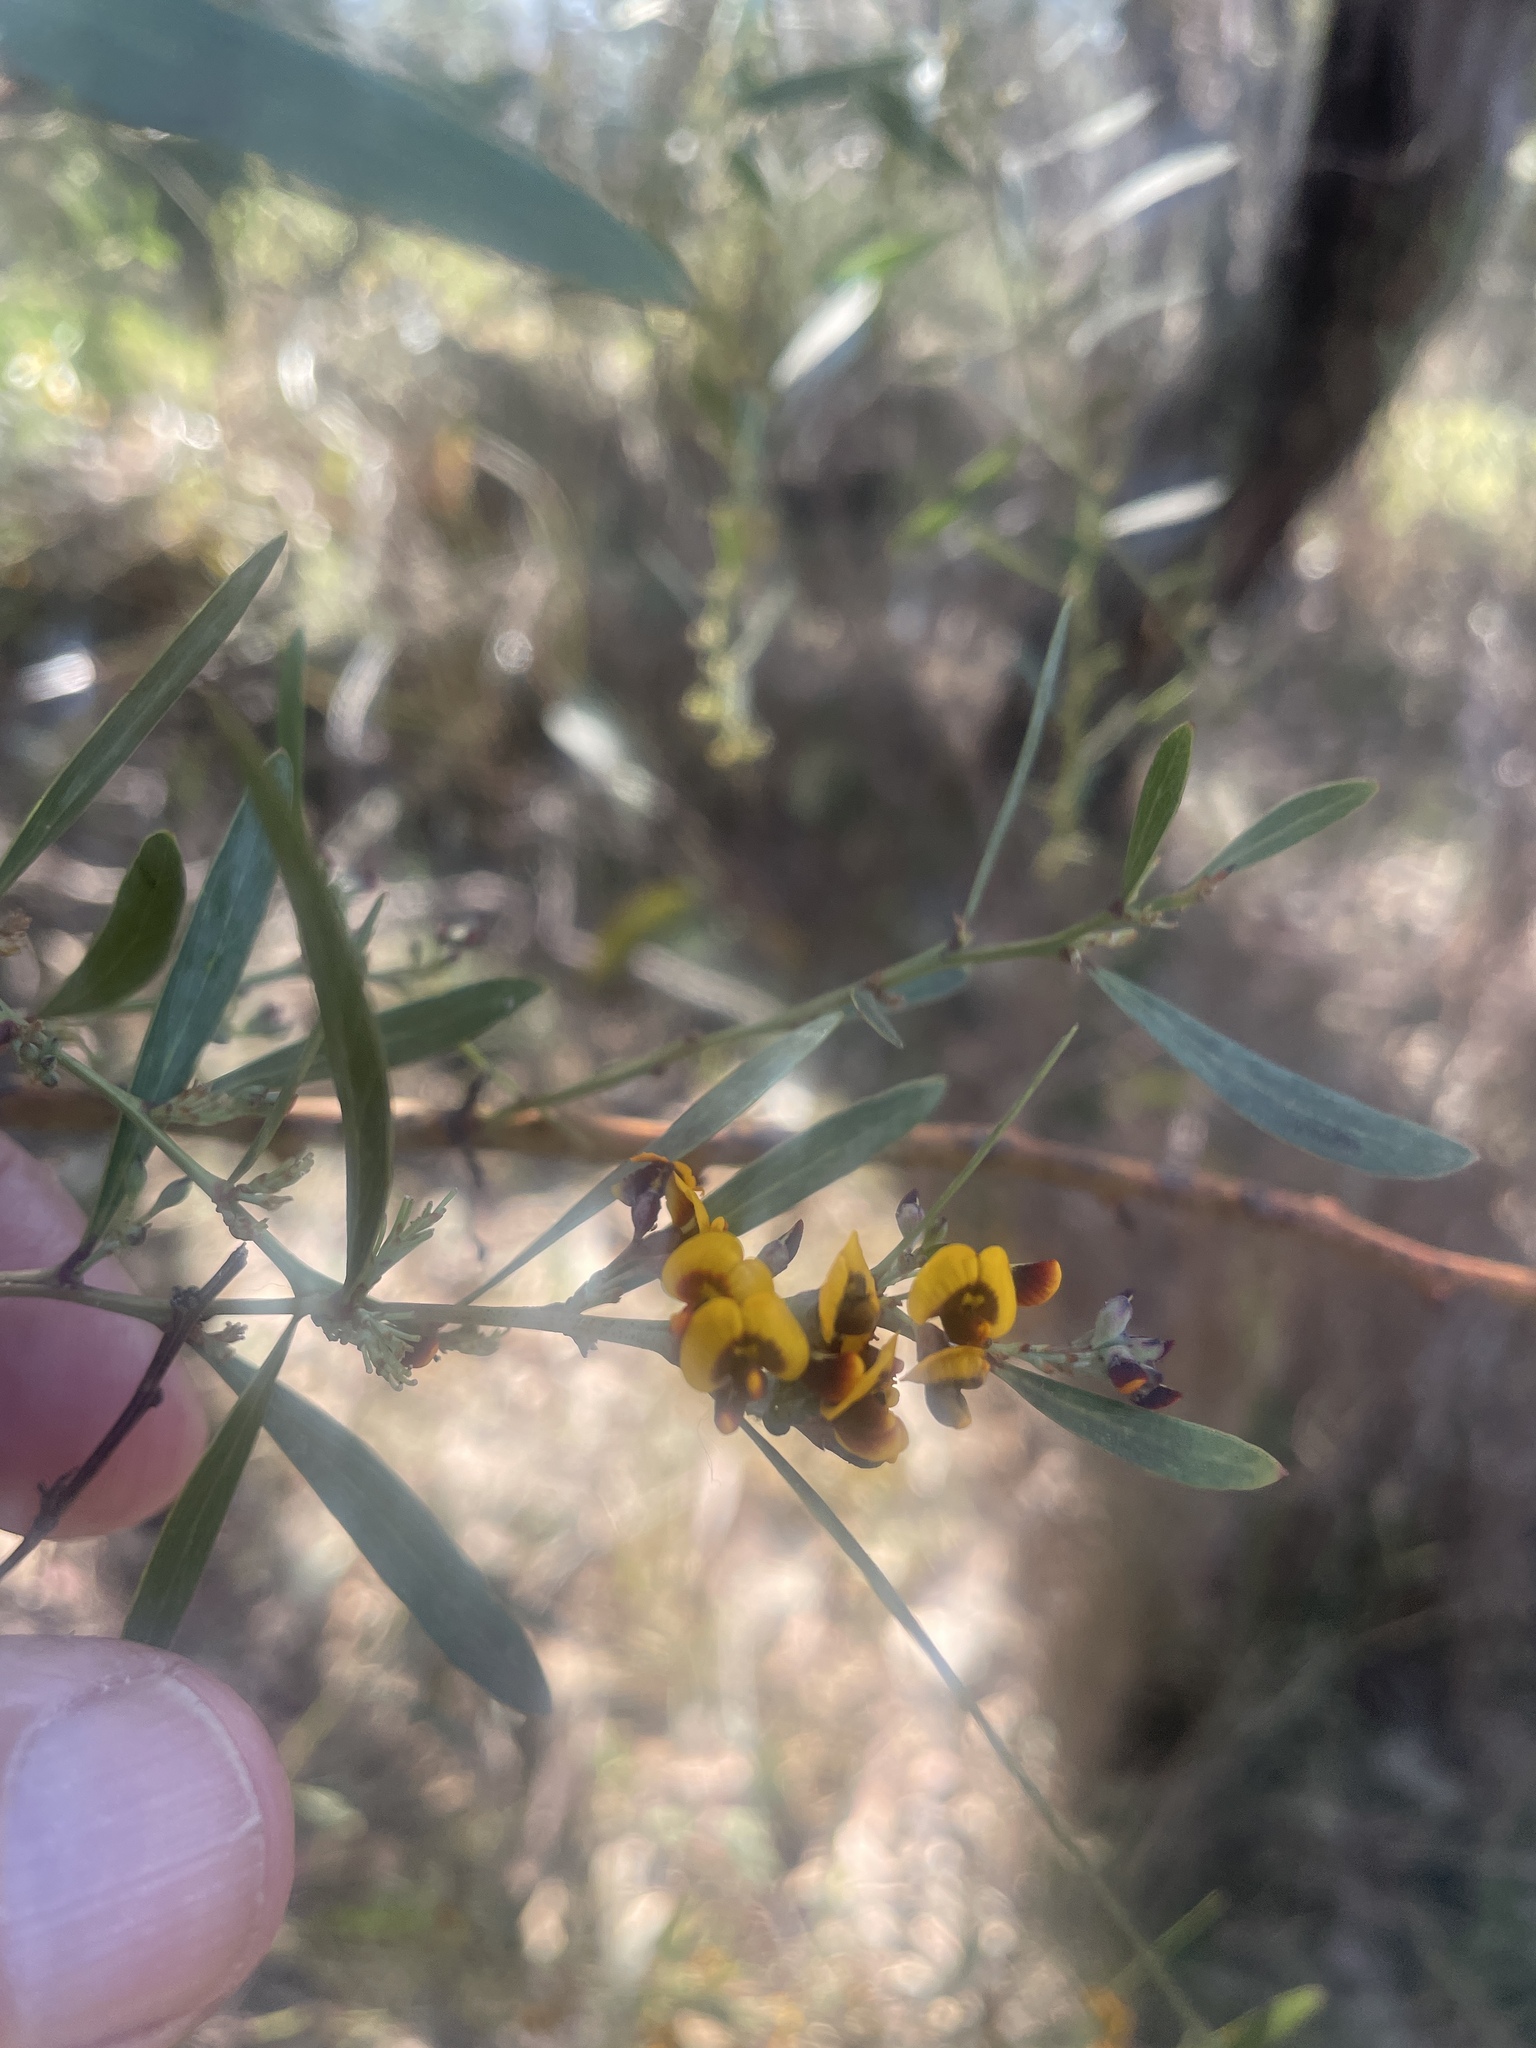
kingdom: Plantae
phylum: Tracheophyta
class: Magnoliopsida
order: Fabales
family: Fabaceae
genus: Daviesia
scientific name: Daviesia mimosoides
